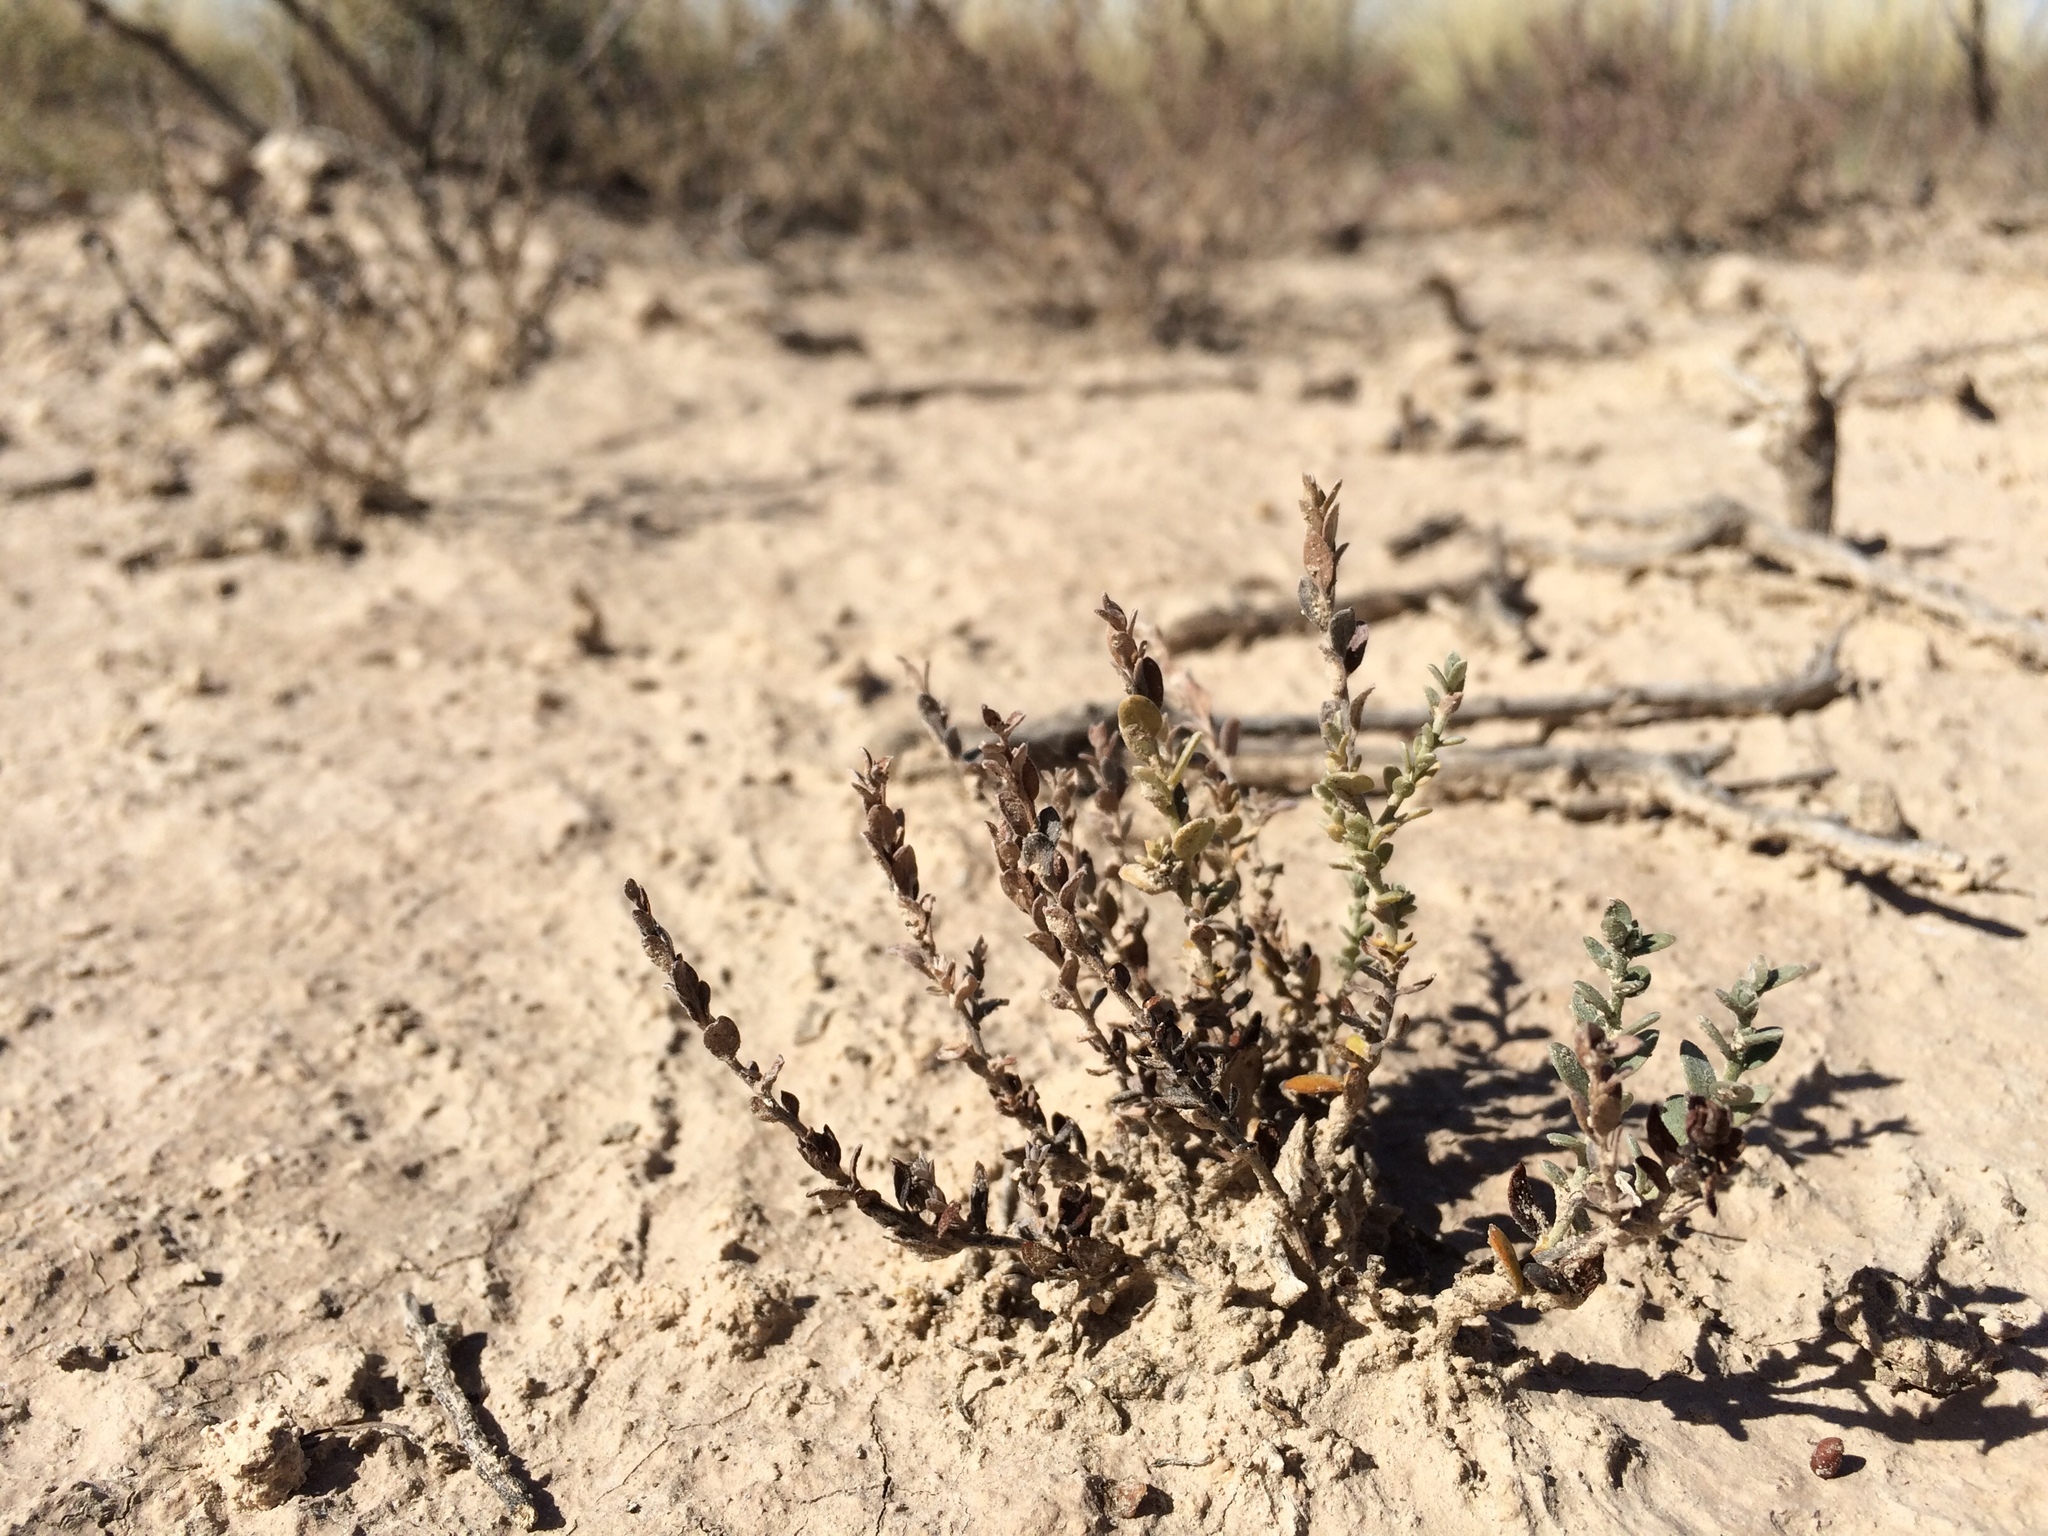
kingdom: Plantae
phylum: Tracheophyta
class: Magnoliopsida
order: Solanales
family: Convolvulaceae
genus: Cressa
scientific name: Cressa truxillensis
